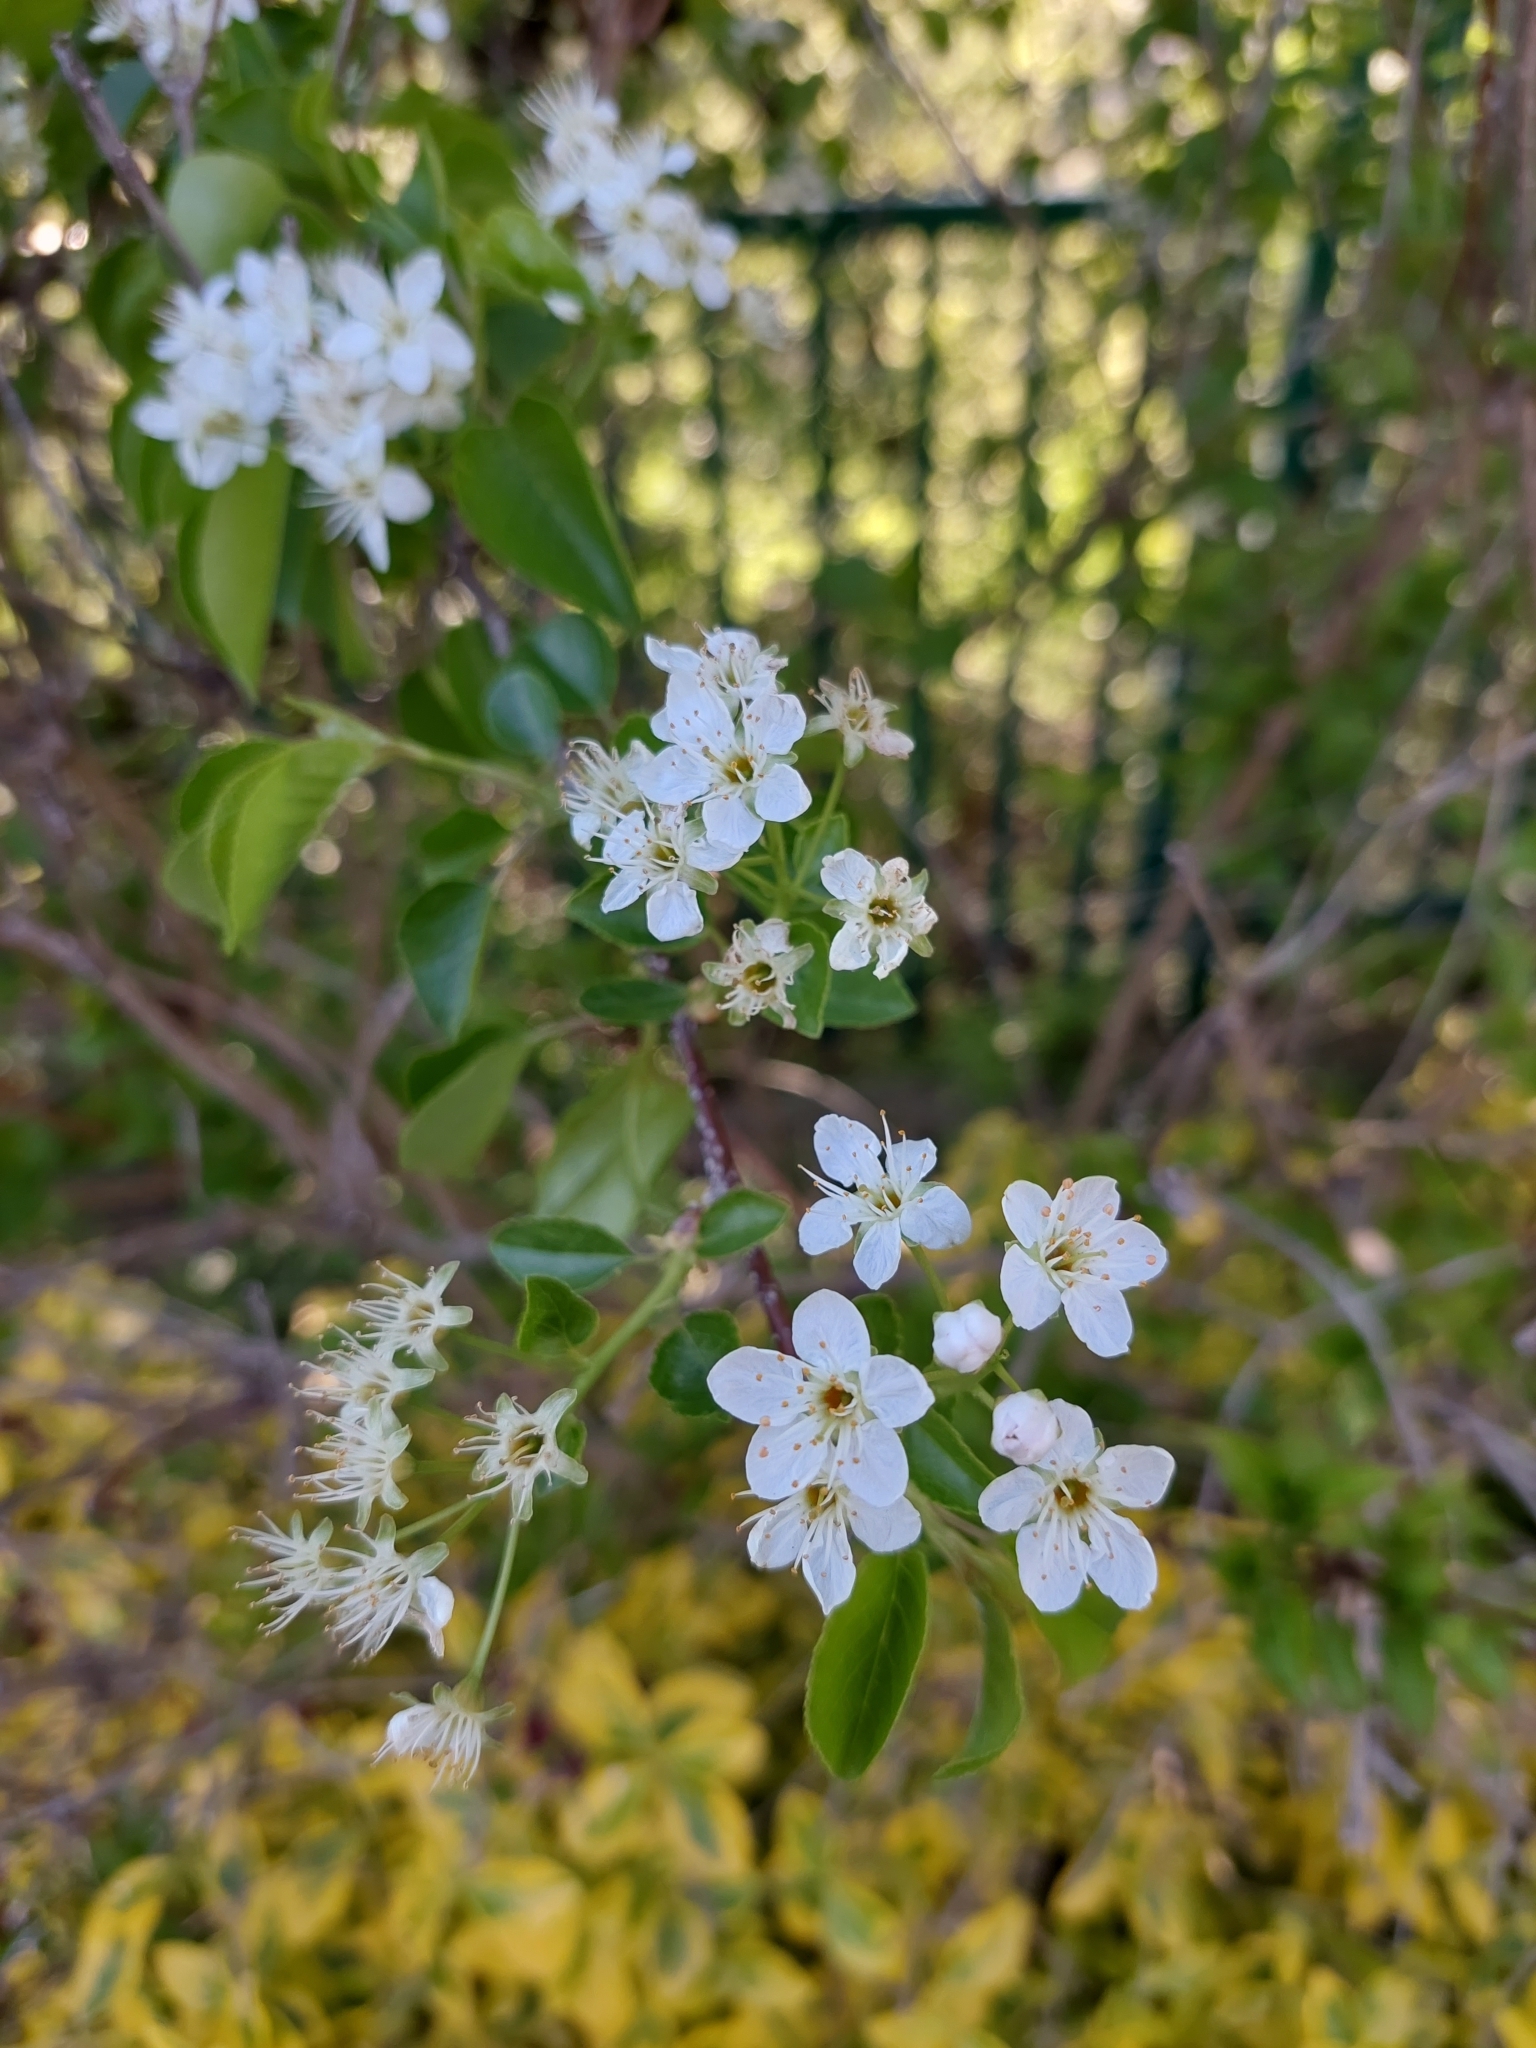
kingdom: Plantae
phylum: Tracheophyta
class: Magnoliopsida
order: Rosales
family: Rosaceae
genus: Prunus
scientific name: Prunus mahaleb
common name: Mahaleb cherry
